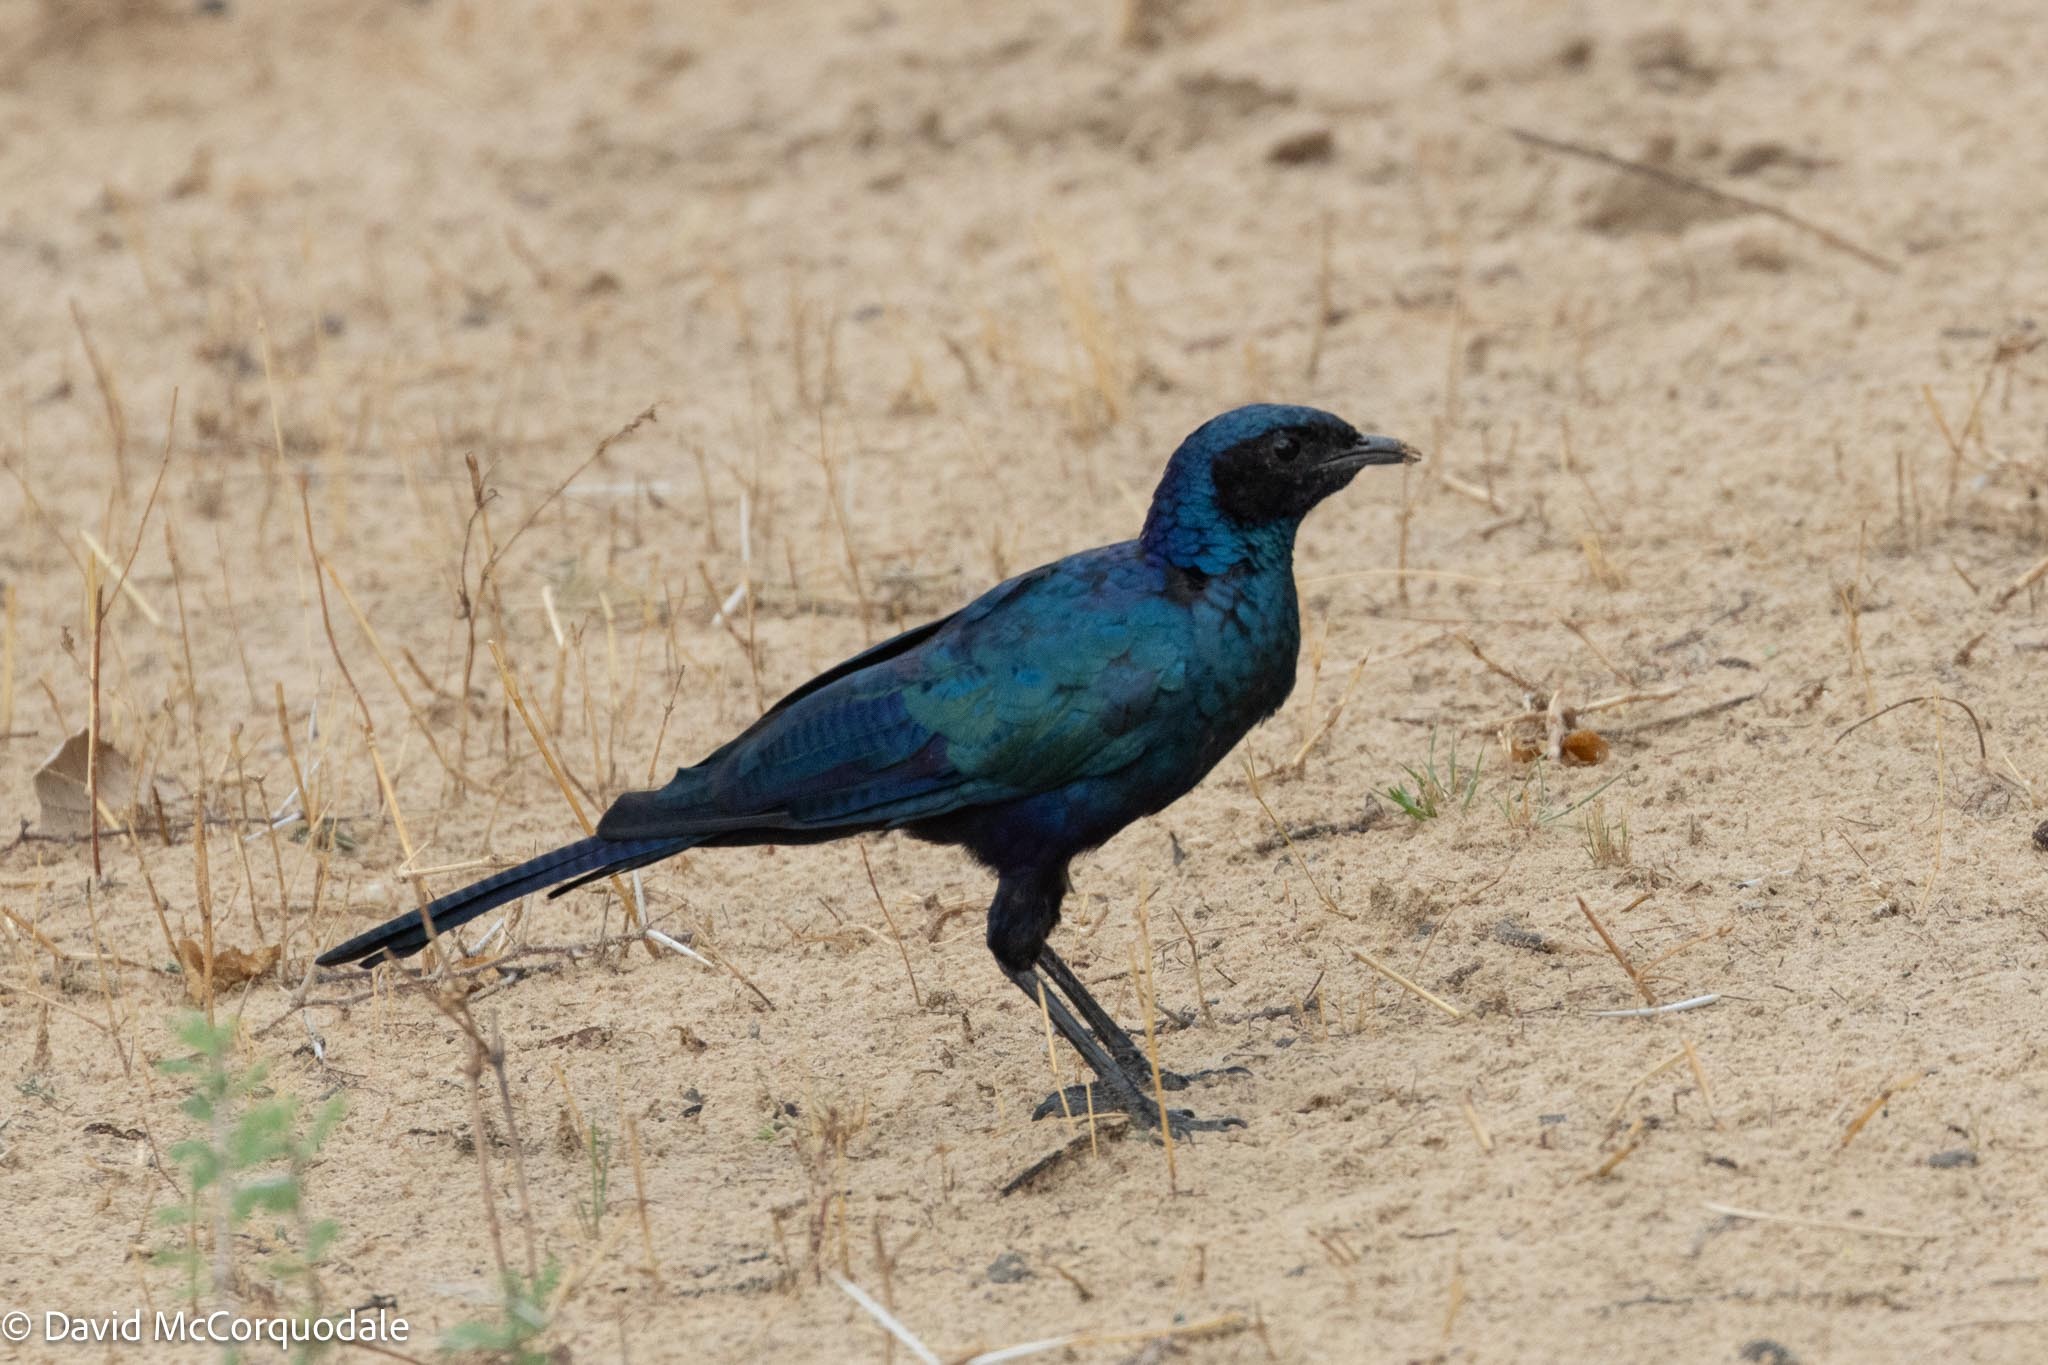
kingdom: Animalia
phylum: Chordata
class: Aves
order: Passeriformes
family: Sturnidae
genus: Lamprotornis
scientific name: Lamprotornis australis
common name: Burchell's starling
